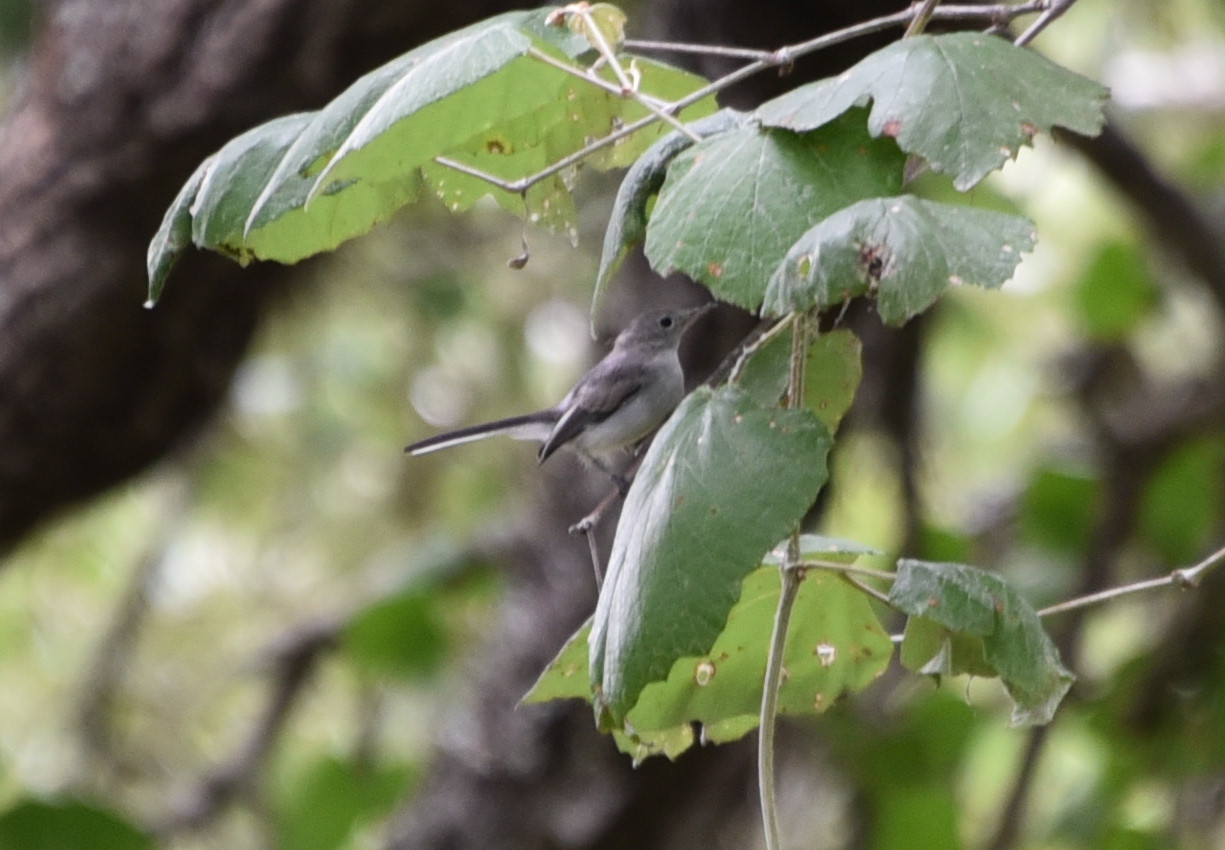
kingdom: Animalia
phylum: Chordata
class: Aves
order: Passeriformes
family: Polioptilidae
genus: Polioptila
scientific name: Polioptila caerulea
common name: Blue-gray gnatcatcher
